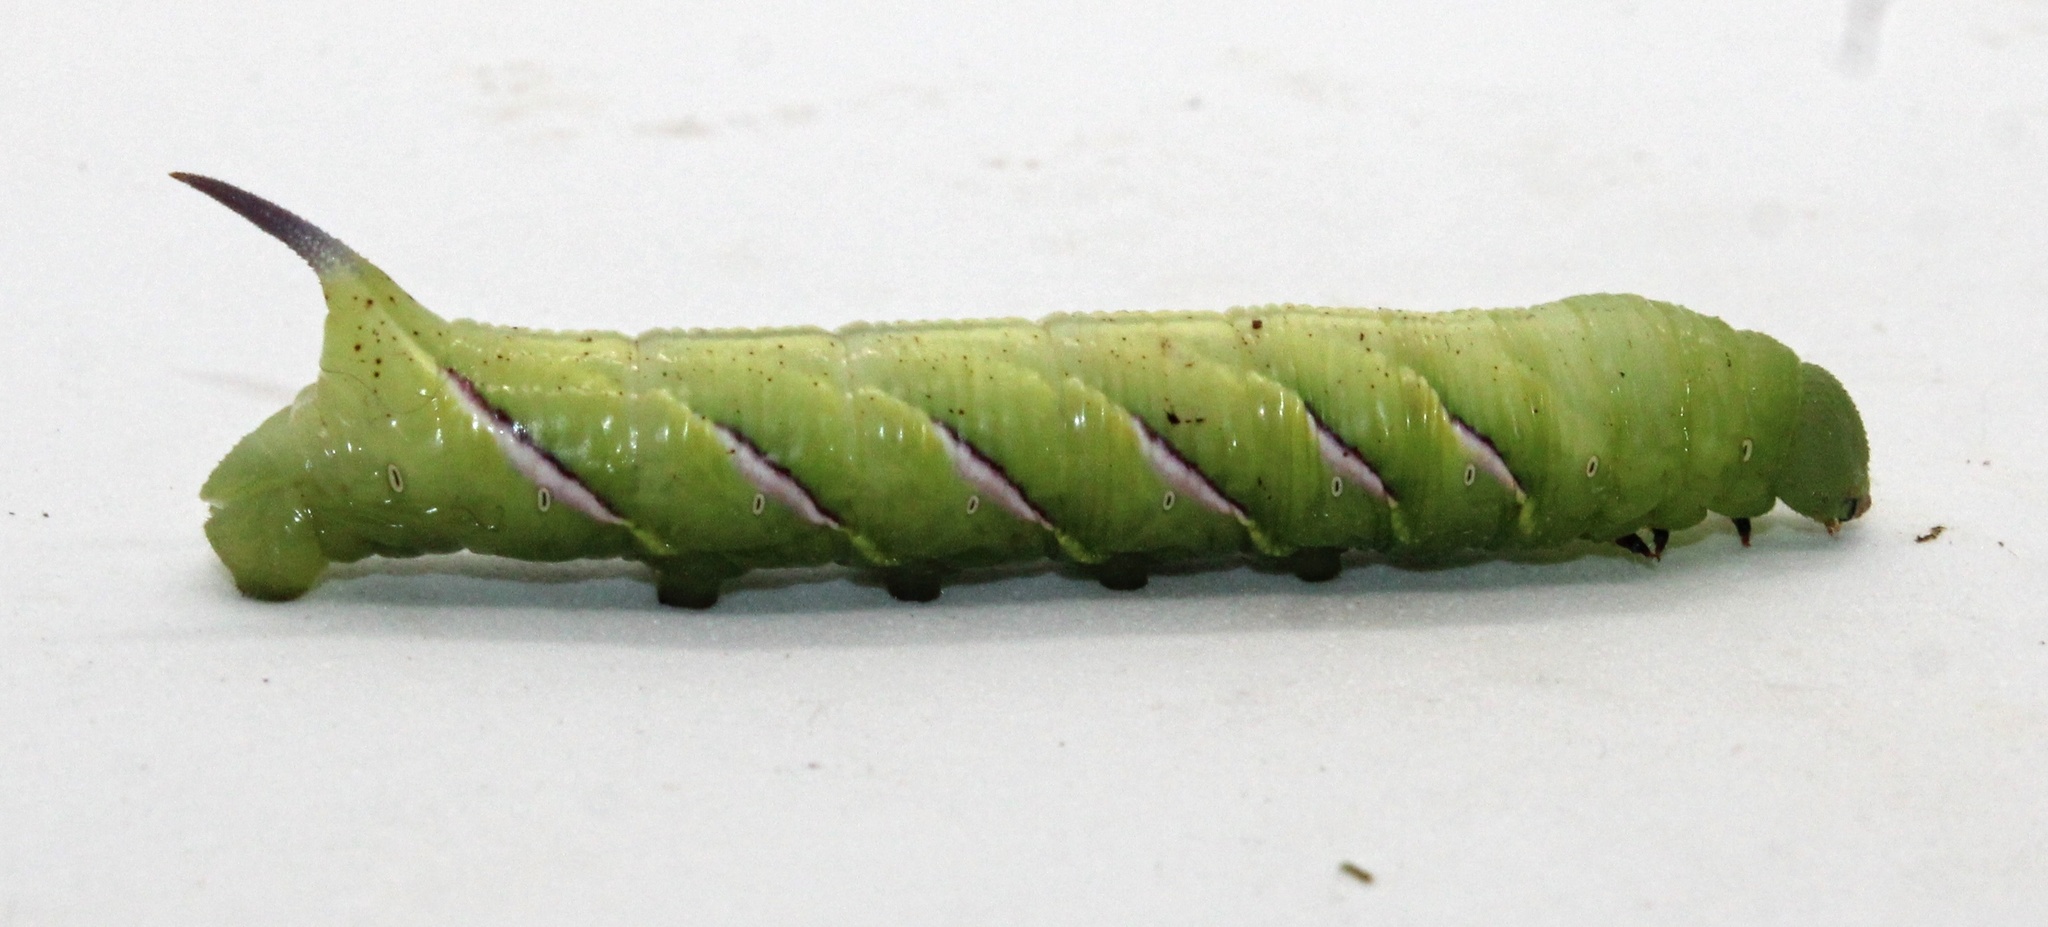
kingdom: Animalia
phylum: Arthropoda
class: Insecta
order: Lepidoptera
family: Sphingidae
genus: Dolba
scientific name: Dolba hyloeus
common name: Pawpaw sphinx
